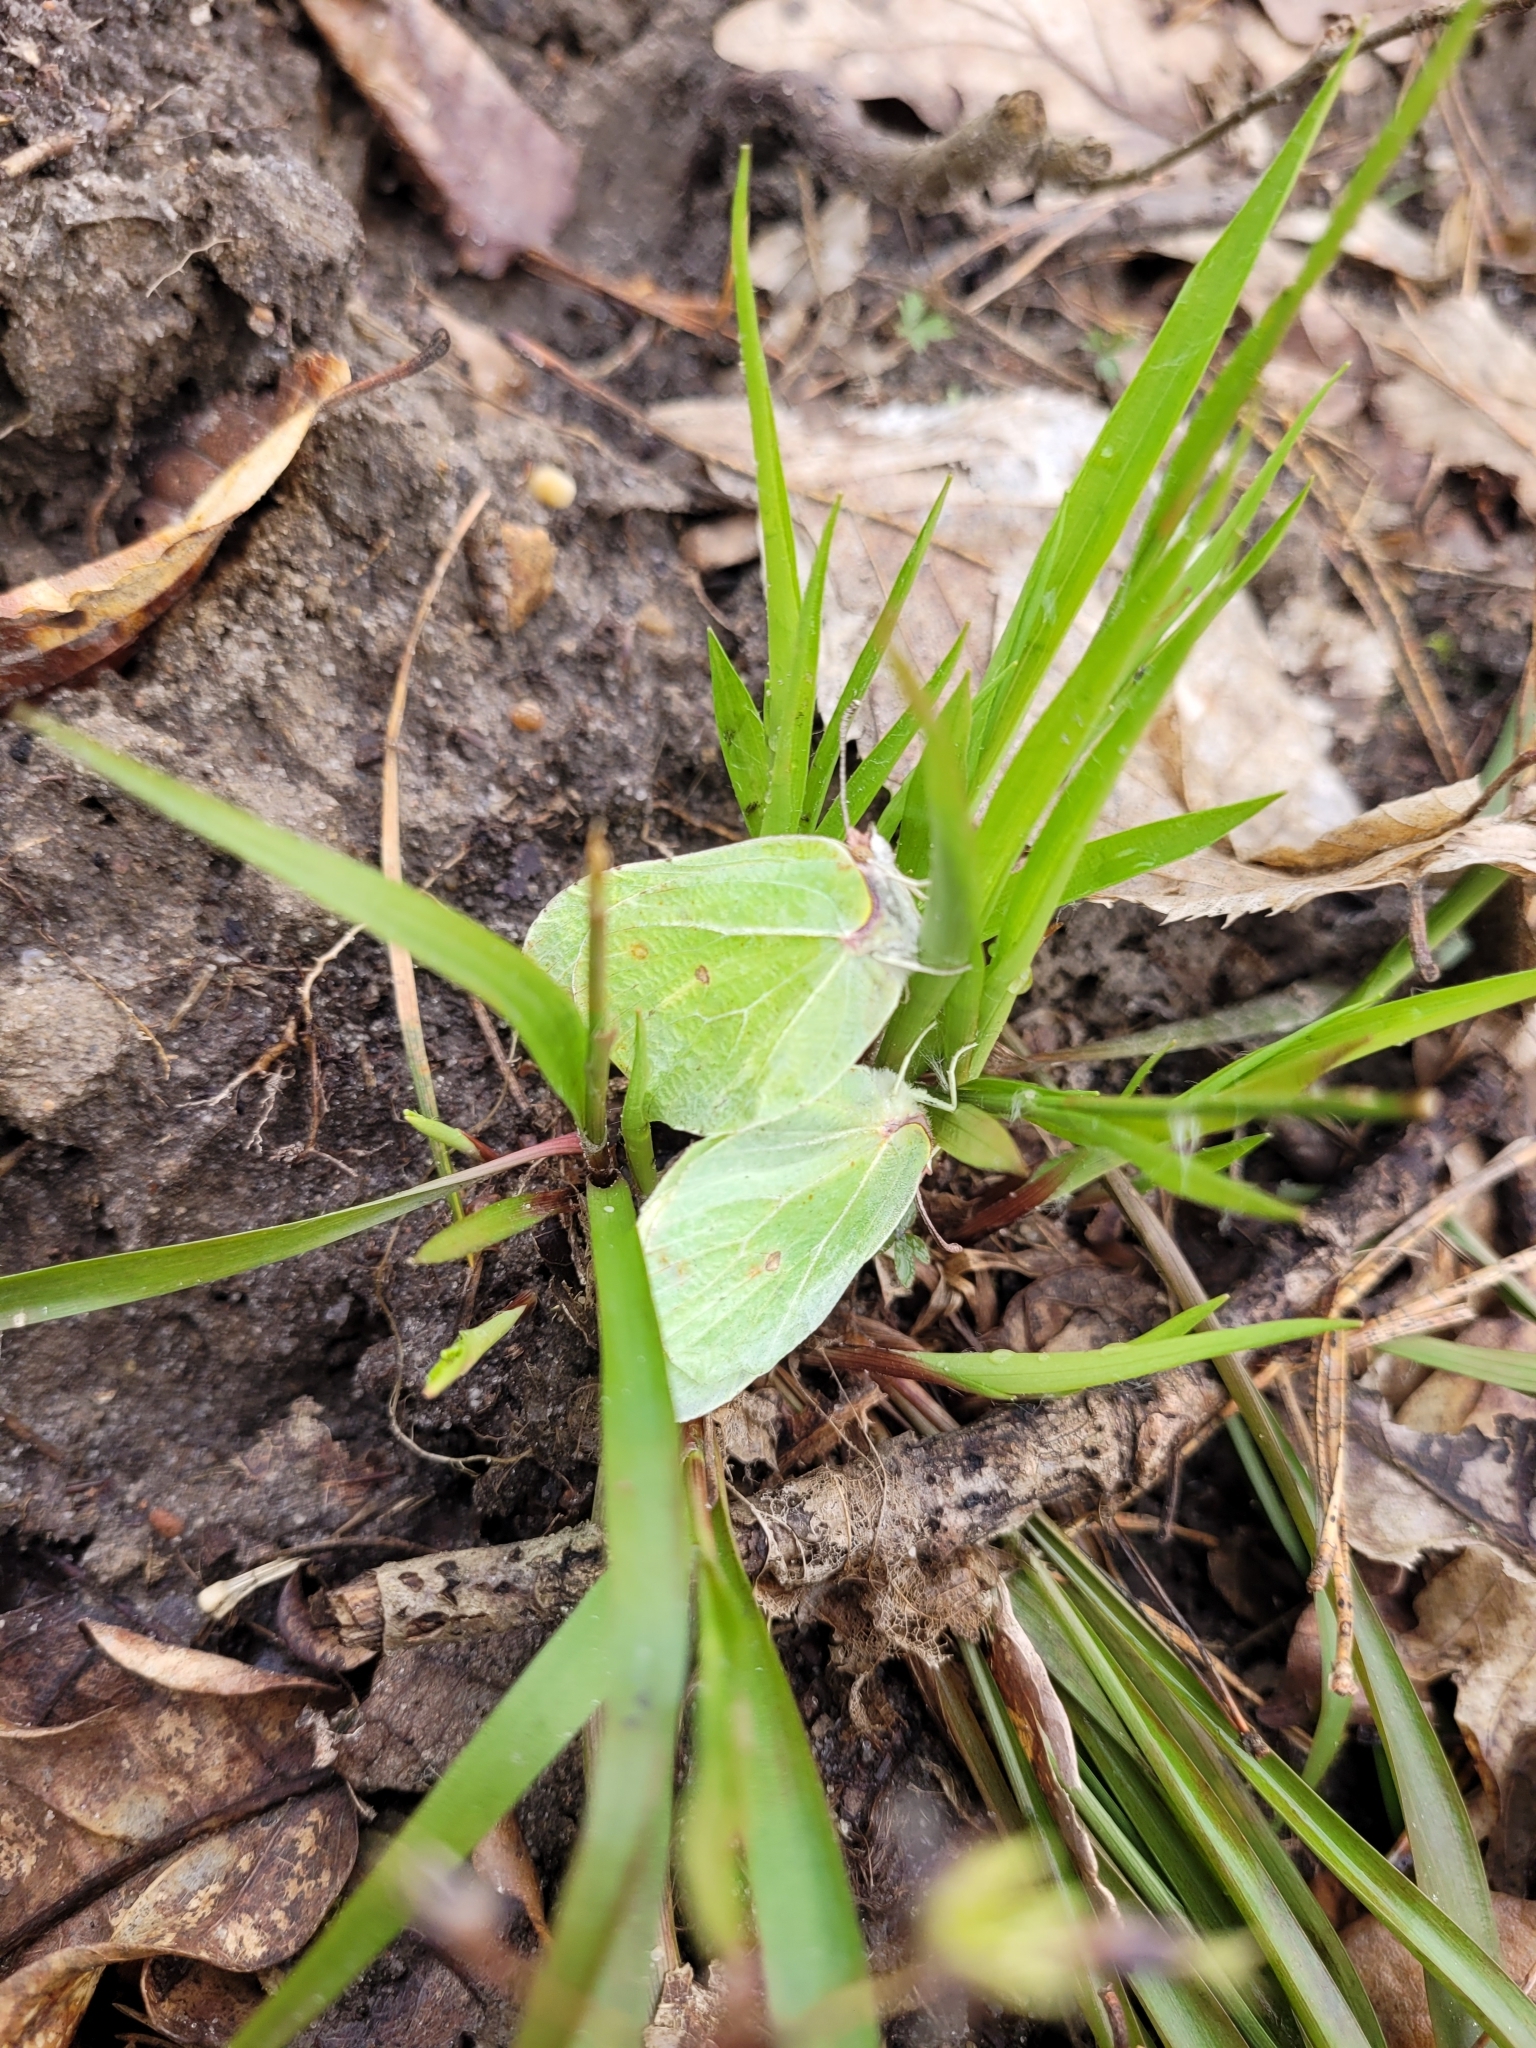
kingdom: Animalia
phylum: Arthropoda
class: Insecta
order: Lepidoptera
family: Pieridae
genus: Gonepteryx
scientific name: Gonepteryx rhamni
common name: Brimstone
